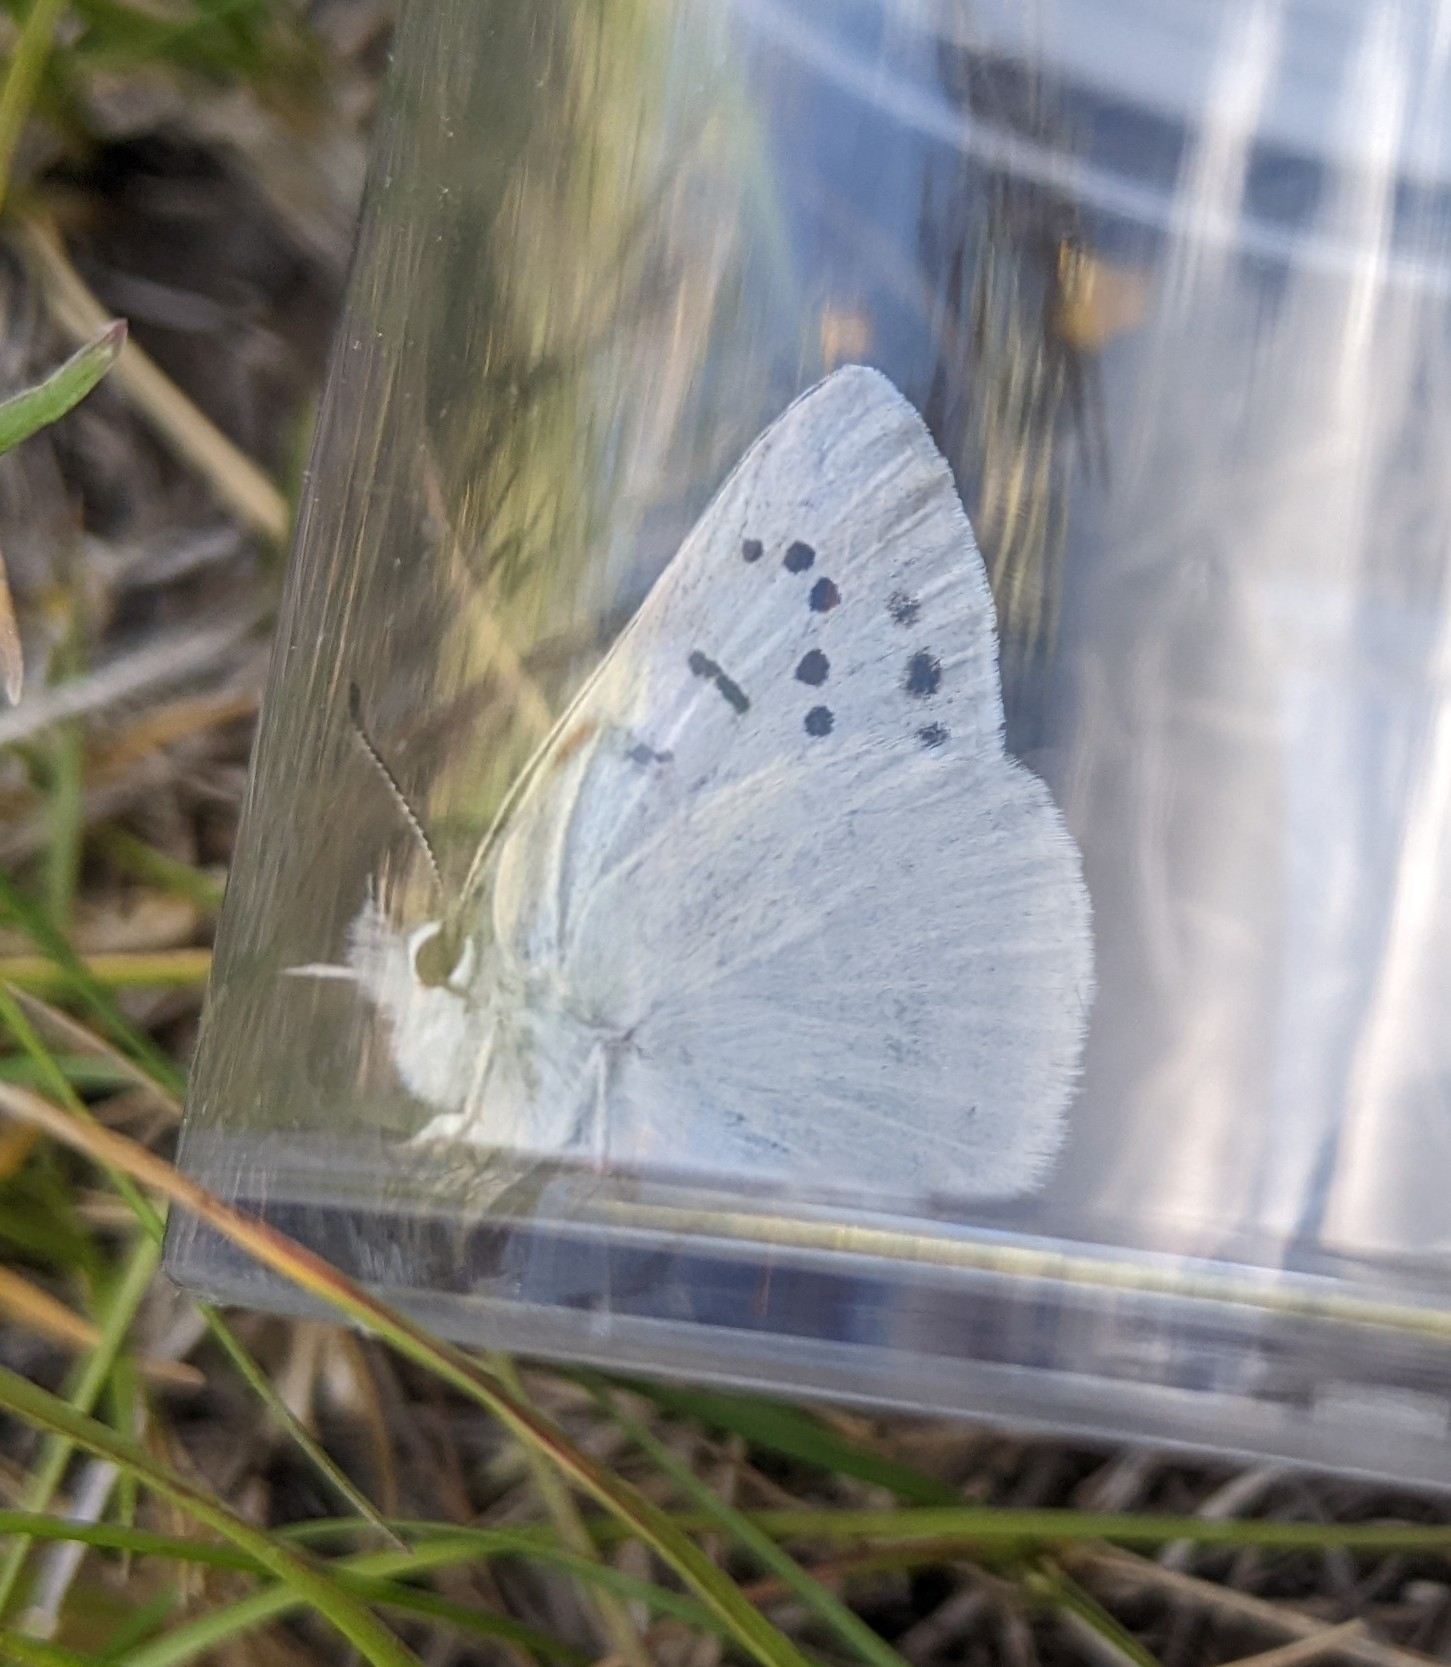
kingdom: Animalia
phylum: Arthropoda
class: Insecta
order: Lepidoptera
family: Lycaenidae
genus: Tharsalea
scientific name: Tharsalea heteronea
